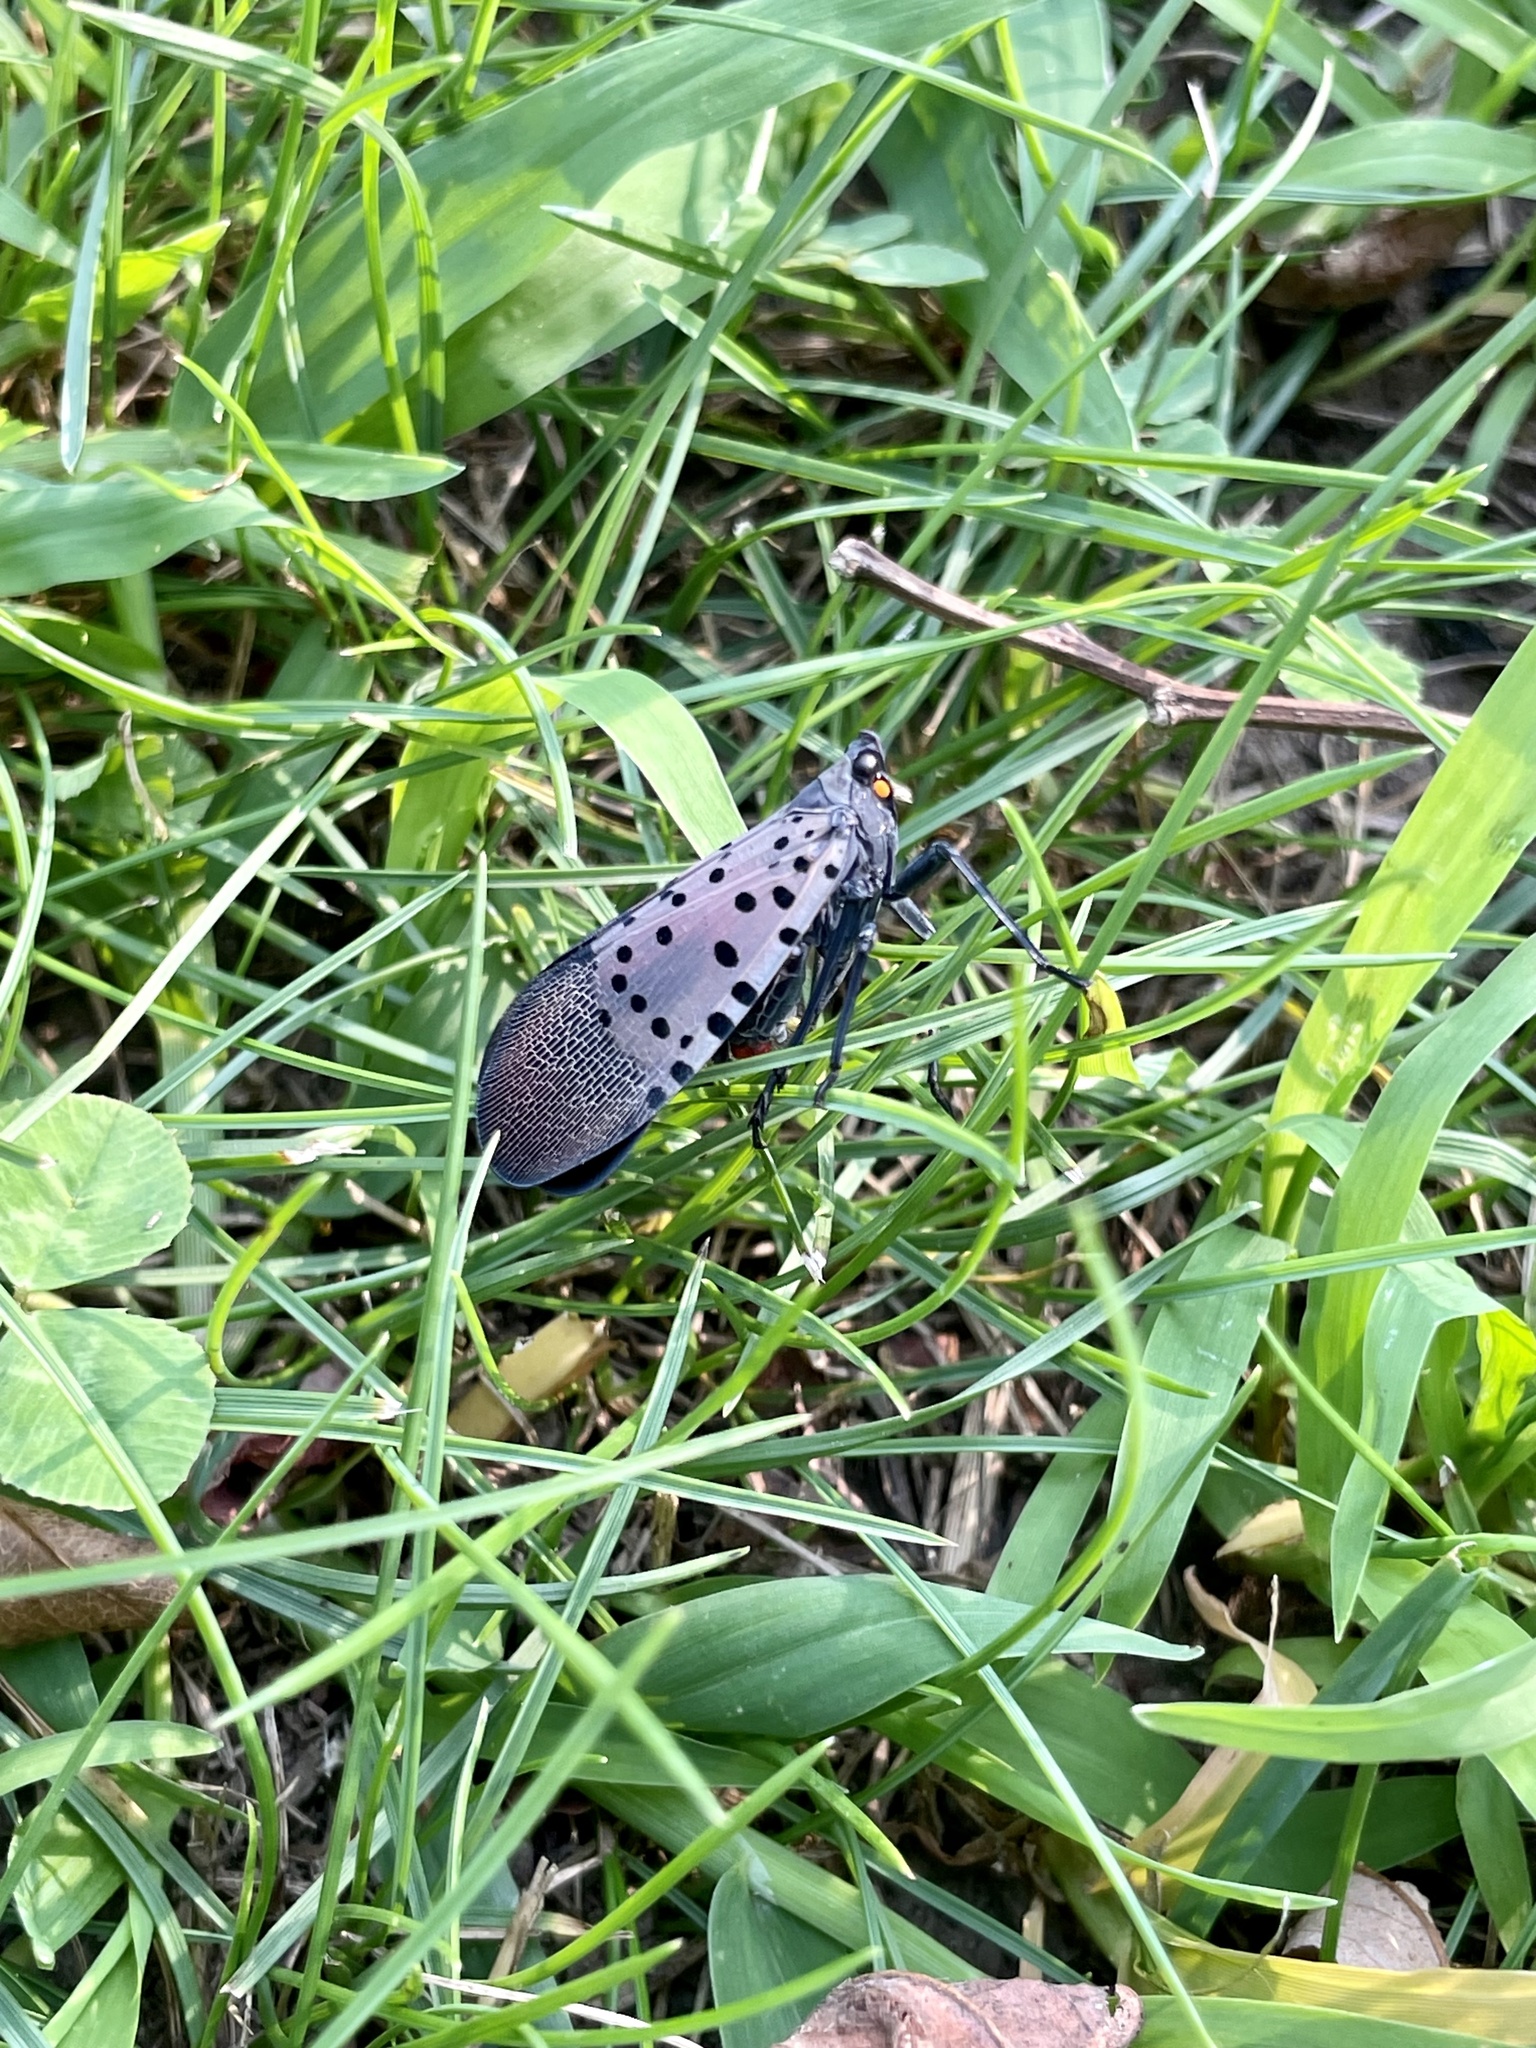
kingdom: Animalia
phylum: Arthropoda
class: Insecta
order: Hemiptera
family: Fulgoridae
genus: Lycorma
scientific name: Lycorma delicatula
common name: Spotted lanternfly
